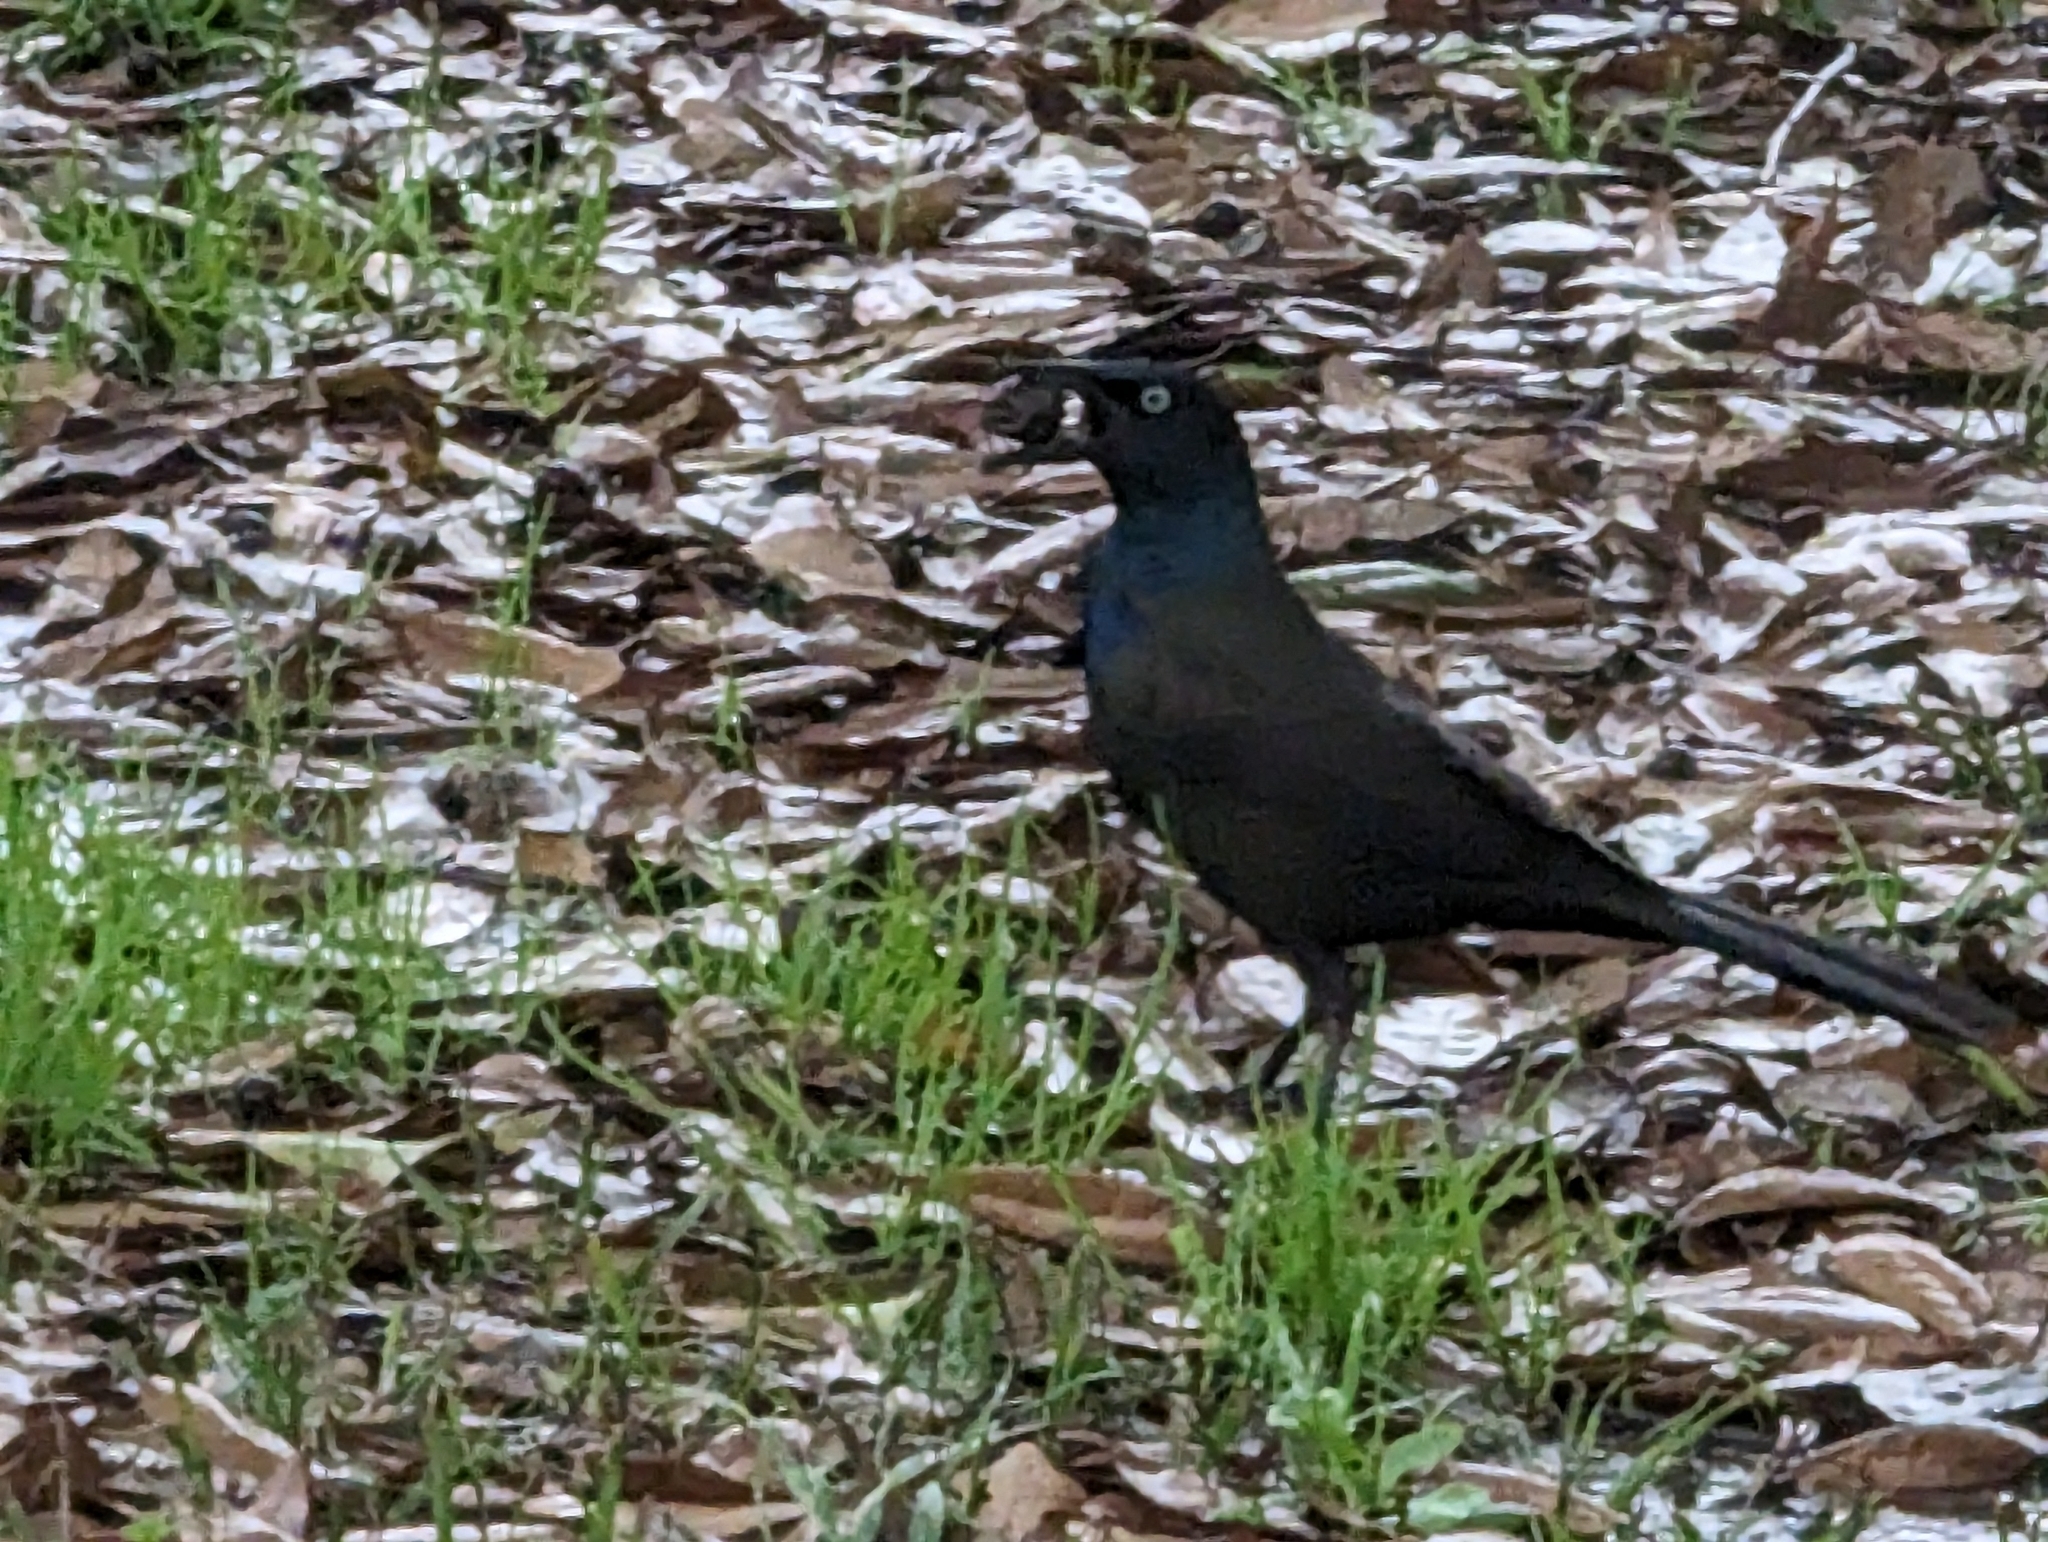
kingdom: Animalia
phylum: Chordata
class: Aves
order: Passeriformes
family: Icteridae
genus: Quiscalus
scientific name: Quiscalus quiscula
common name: Common grackle
